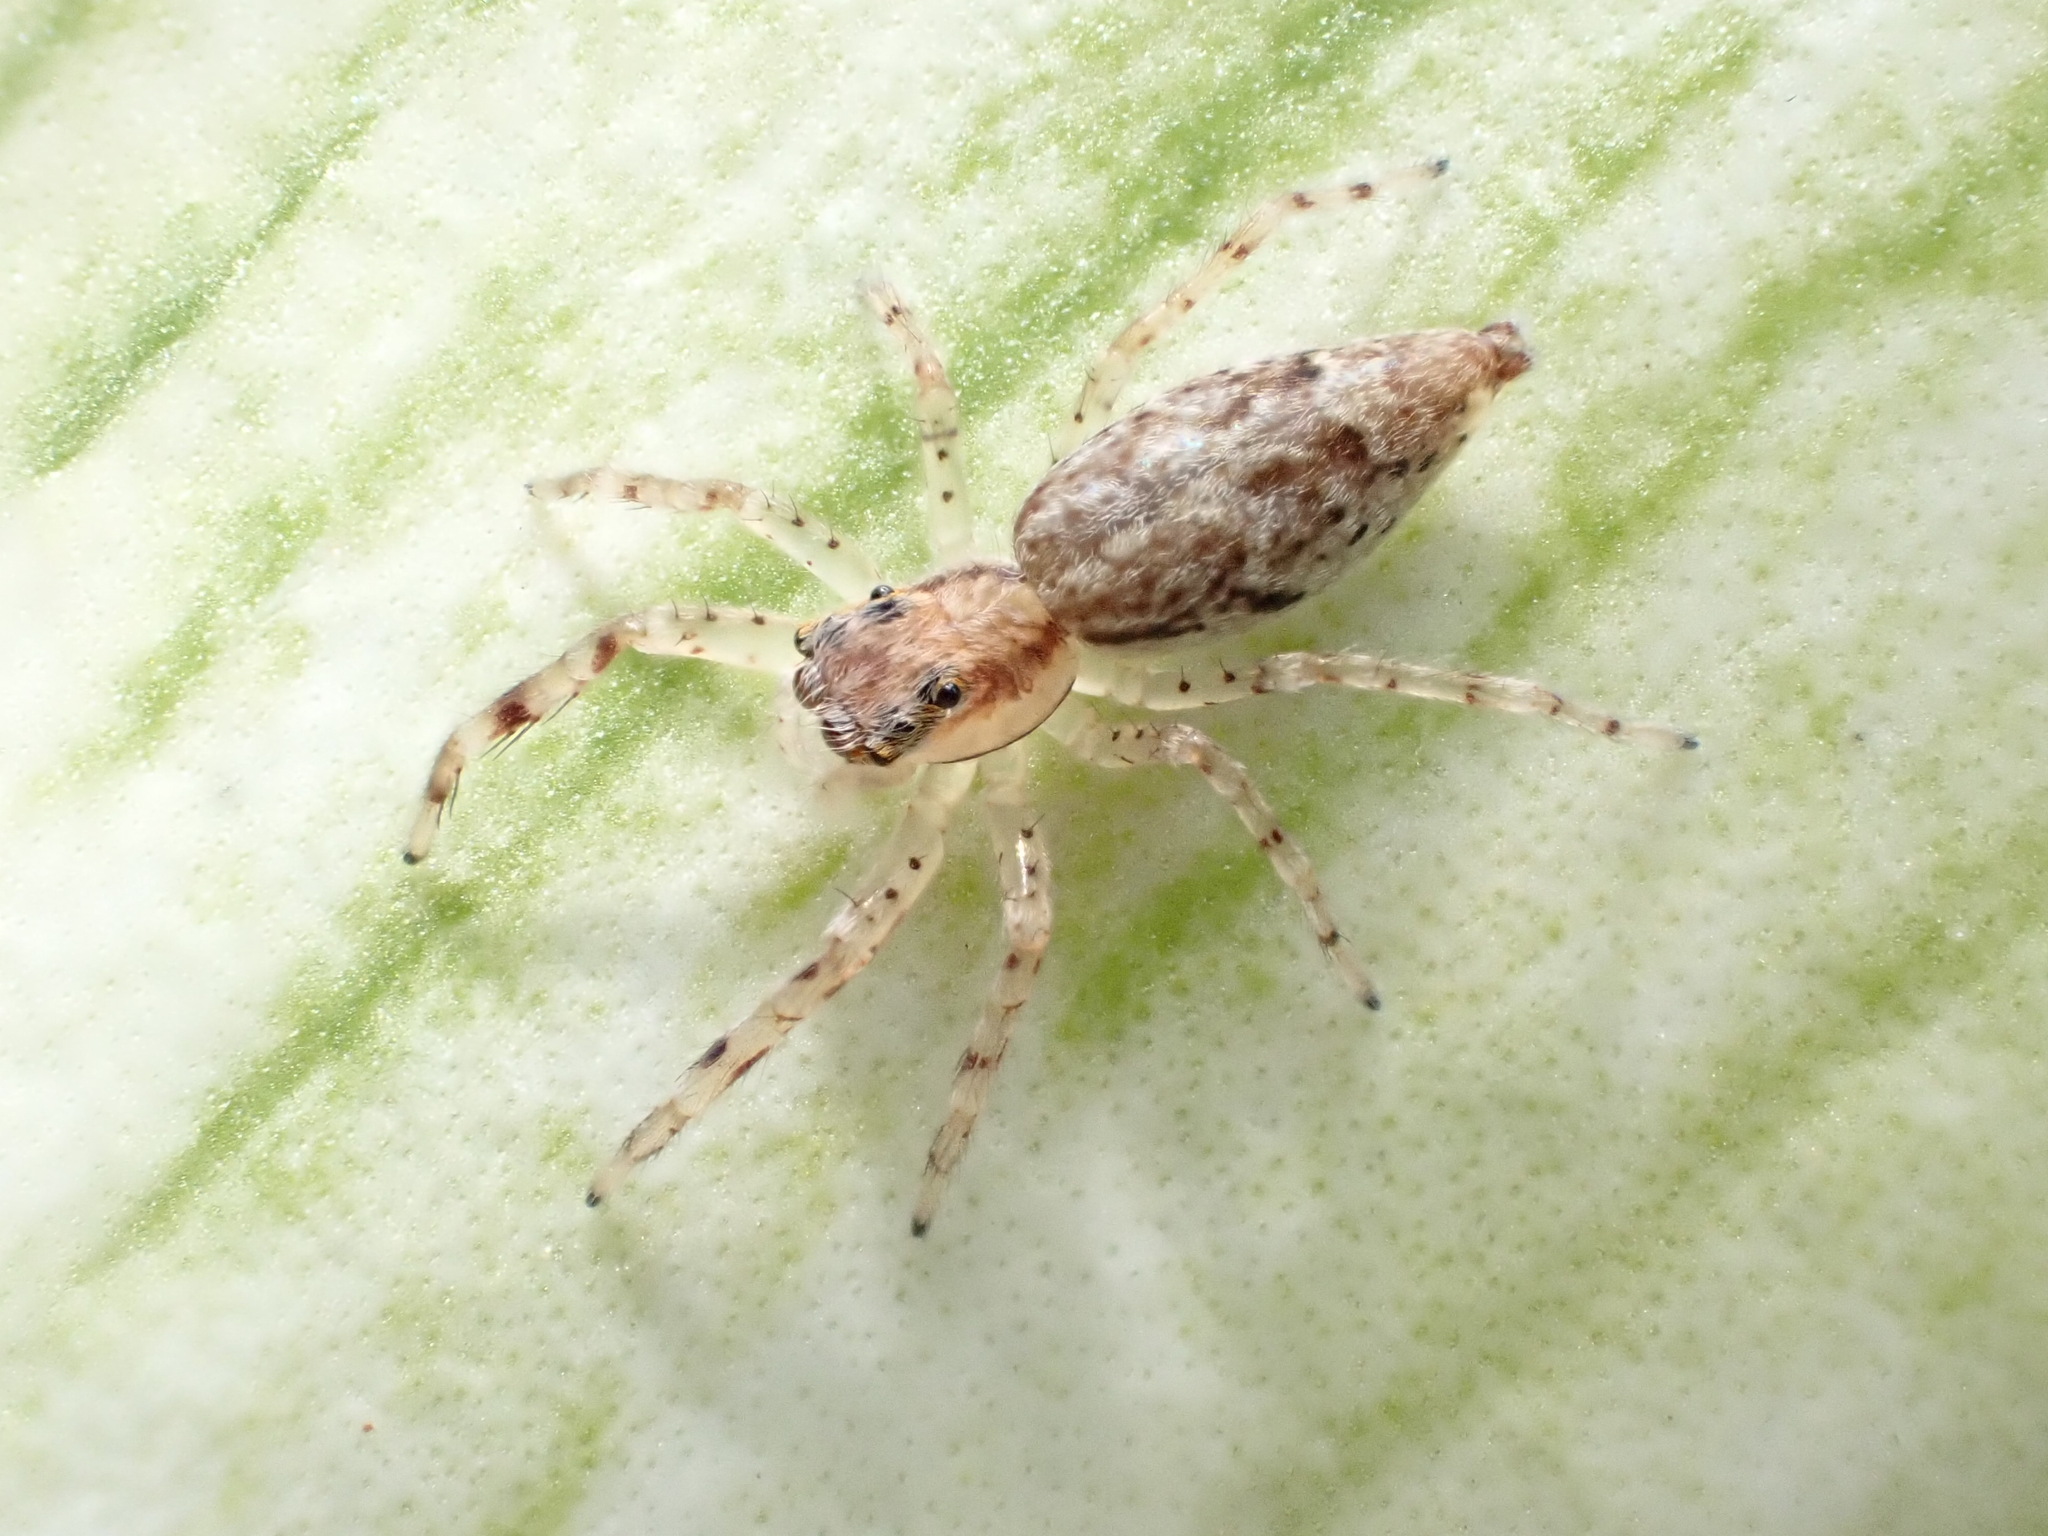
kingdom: Animalia
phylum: Arthropoda
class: Arachnida
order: Araneae
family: Salticidae
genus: Helpis
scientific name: Helpis minitabunda
